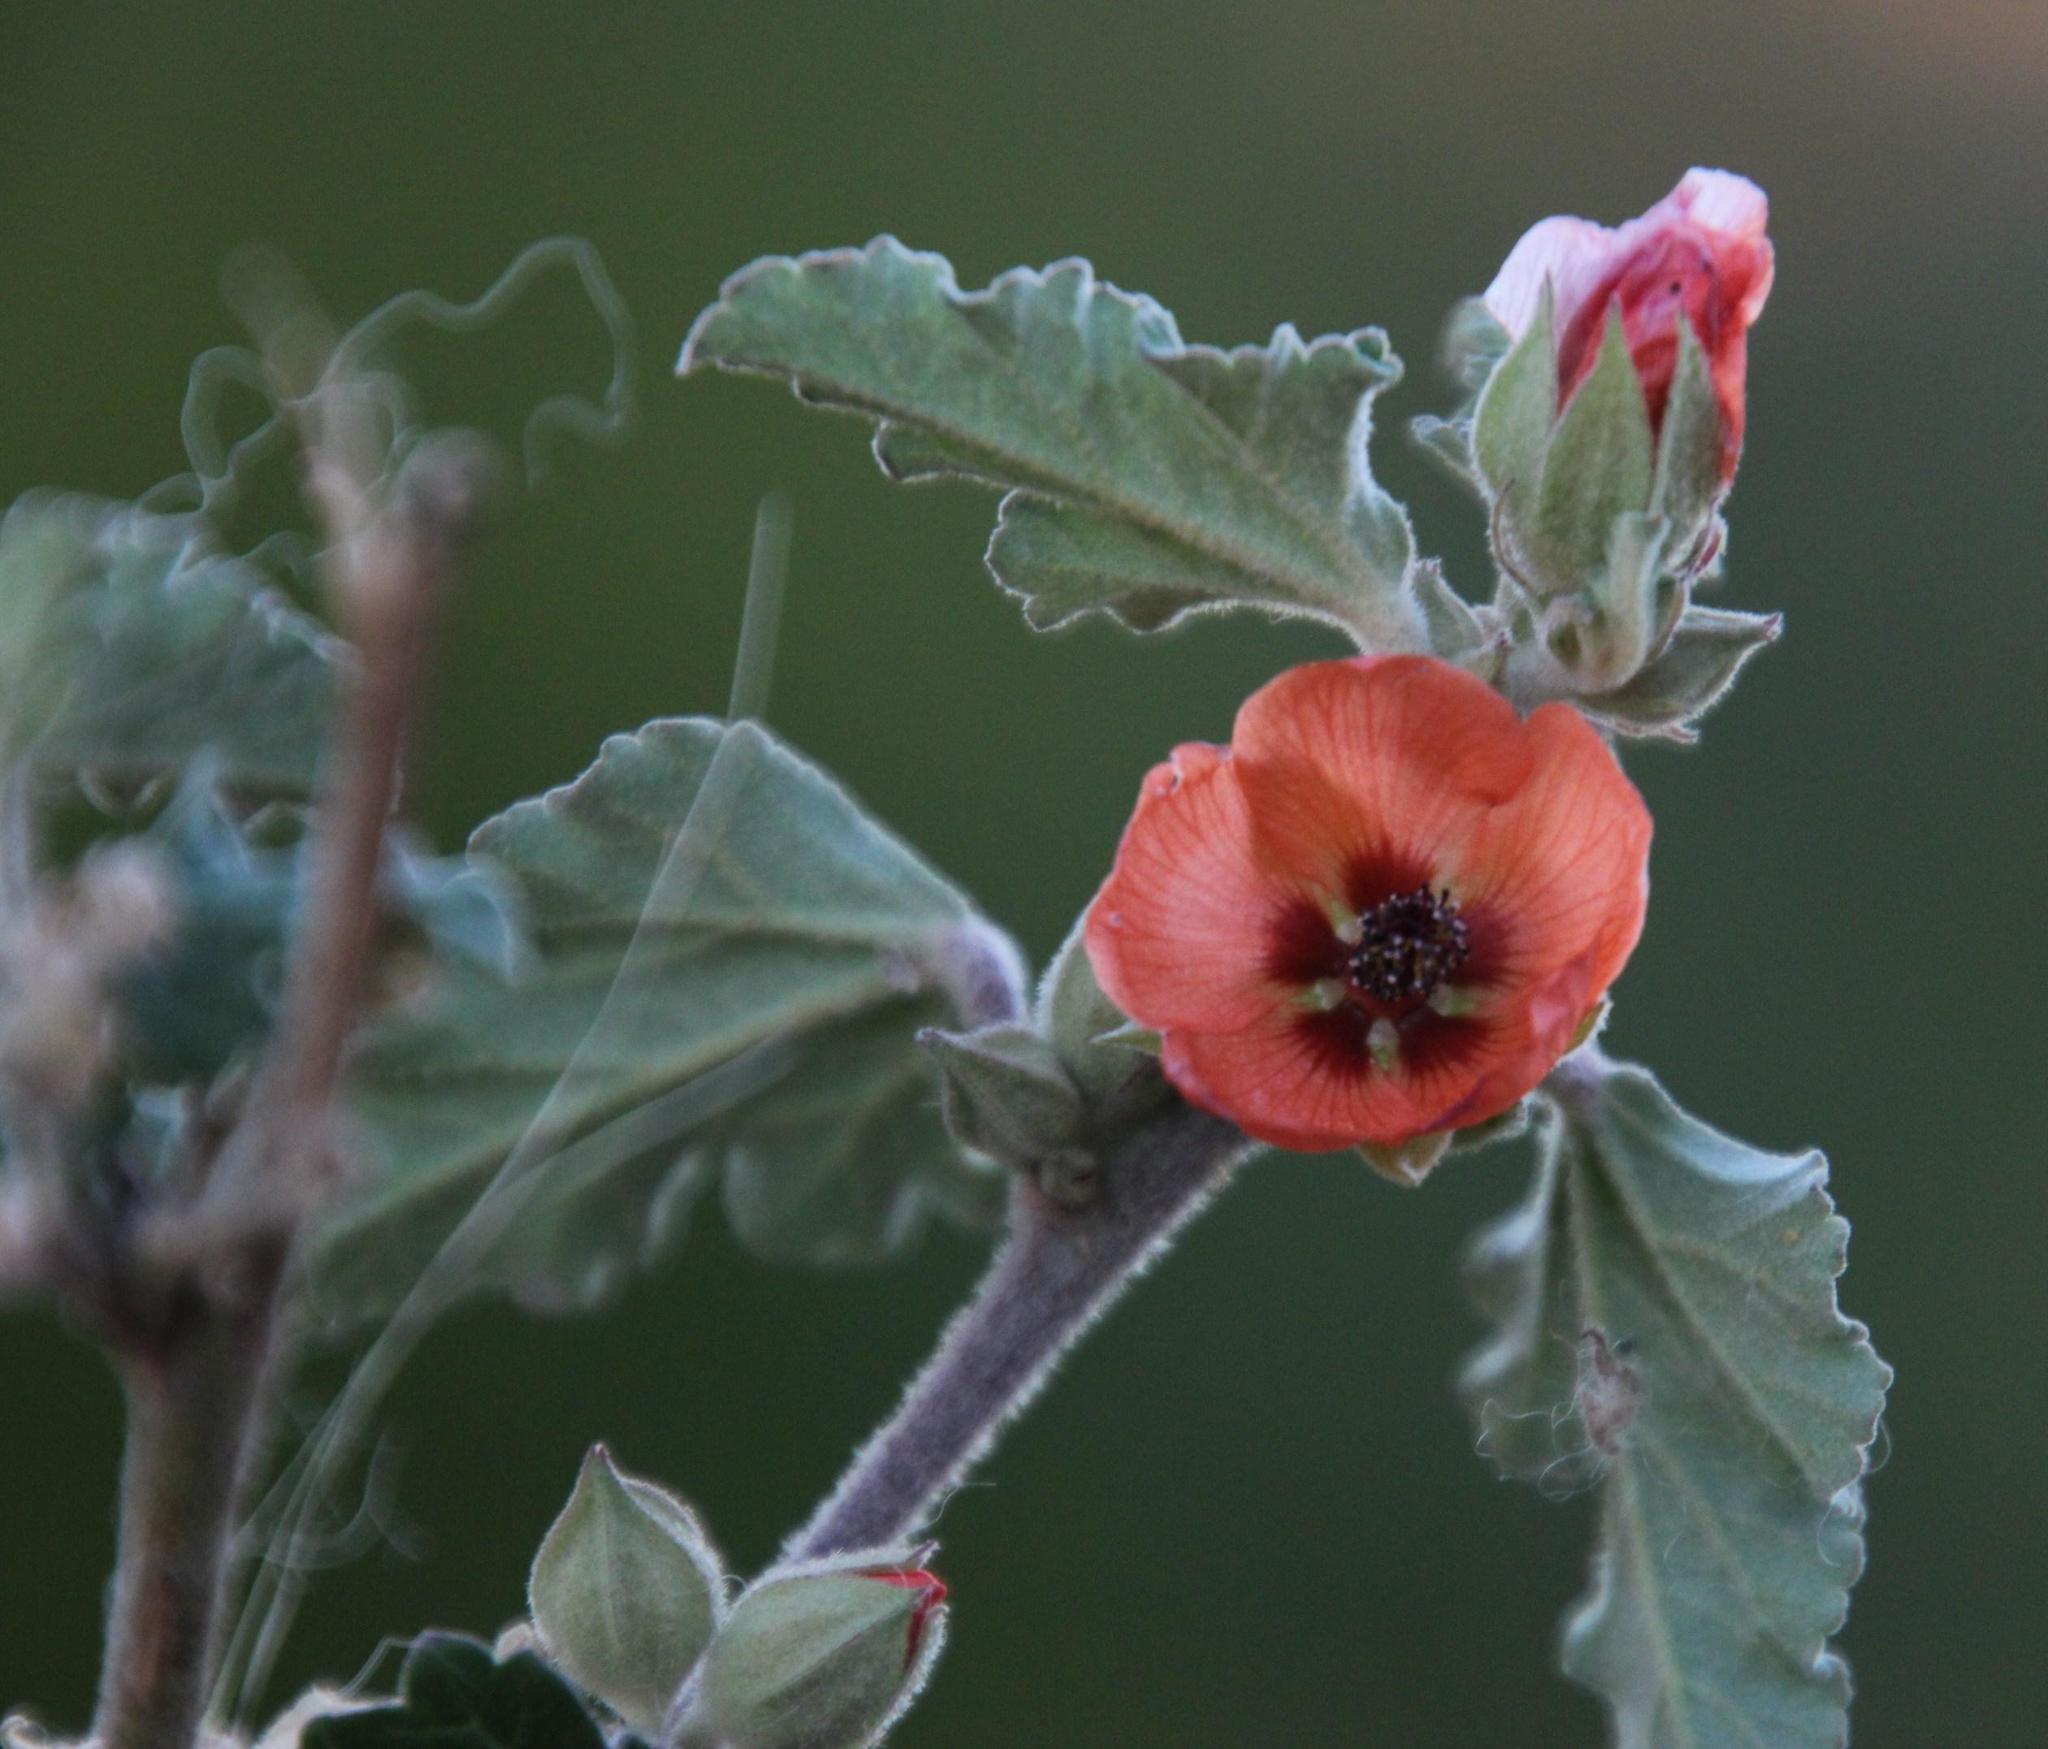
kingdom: Plantae
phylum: Tracheophyta
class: Magnoliopsida
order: Malvales
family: Malvaceae
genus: Sphaeralcea
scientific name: Sphaeralcea bonariensis
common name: Latin globemallow
